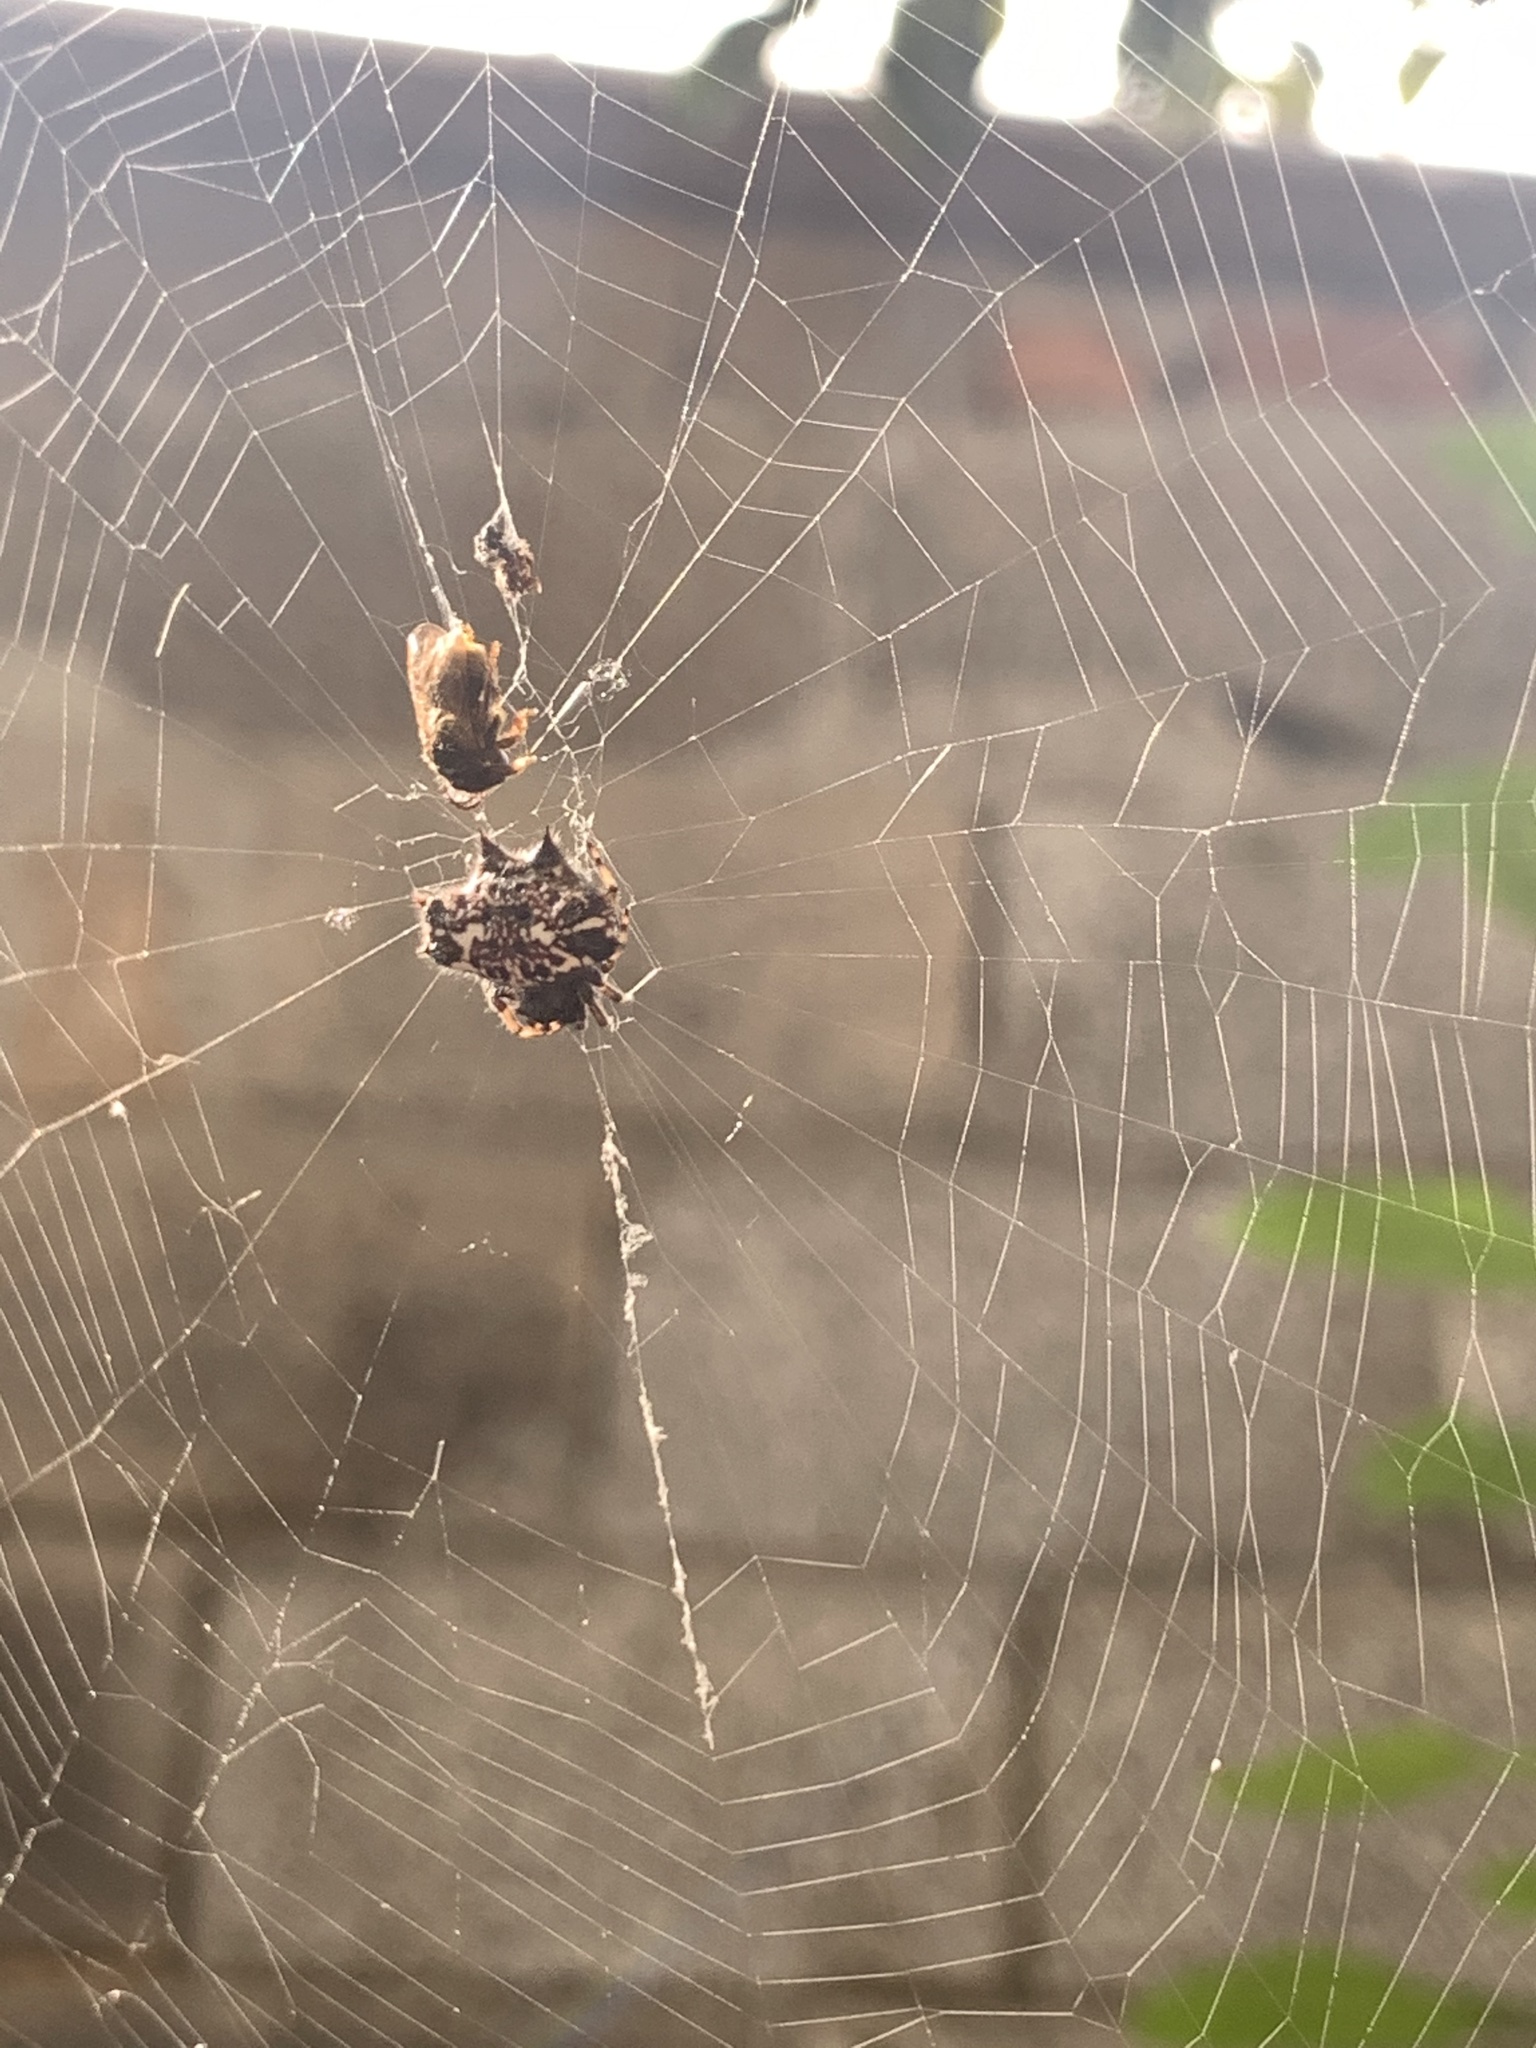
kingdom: Animalia
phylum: Arthropoda
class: Arachnida
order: Araneae
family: Araneidae
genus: Gasteracantha
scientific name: Gasteracantha cancriformis
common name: Orb weavers
